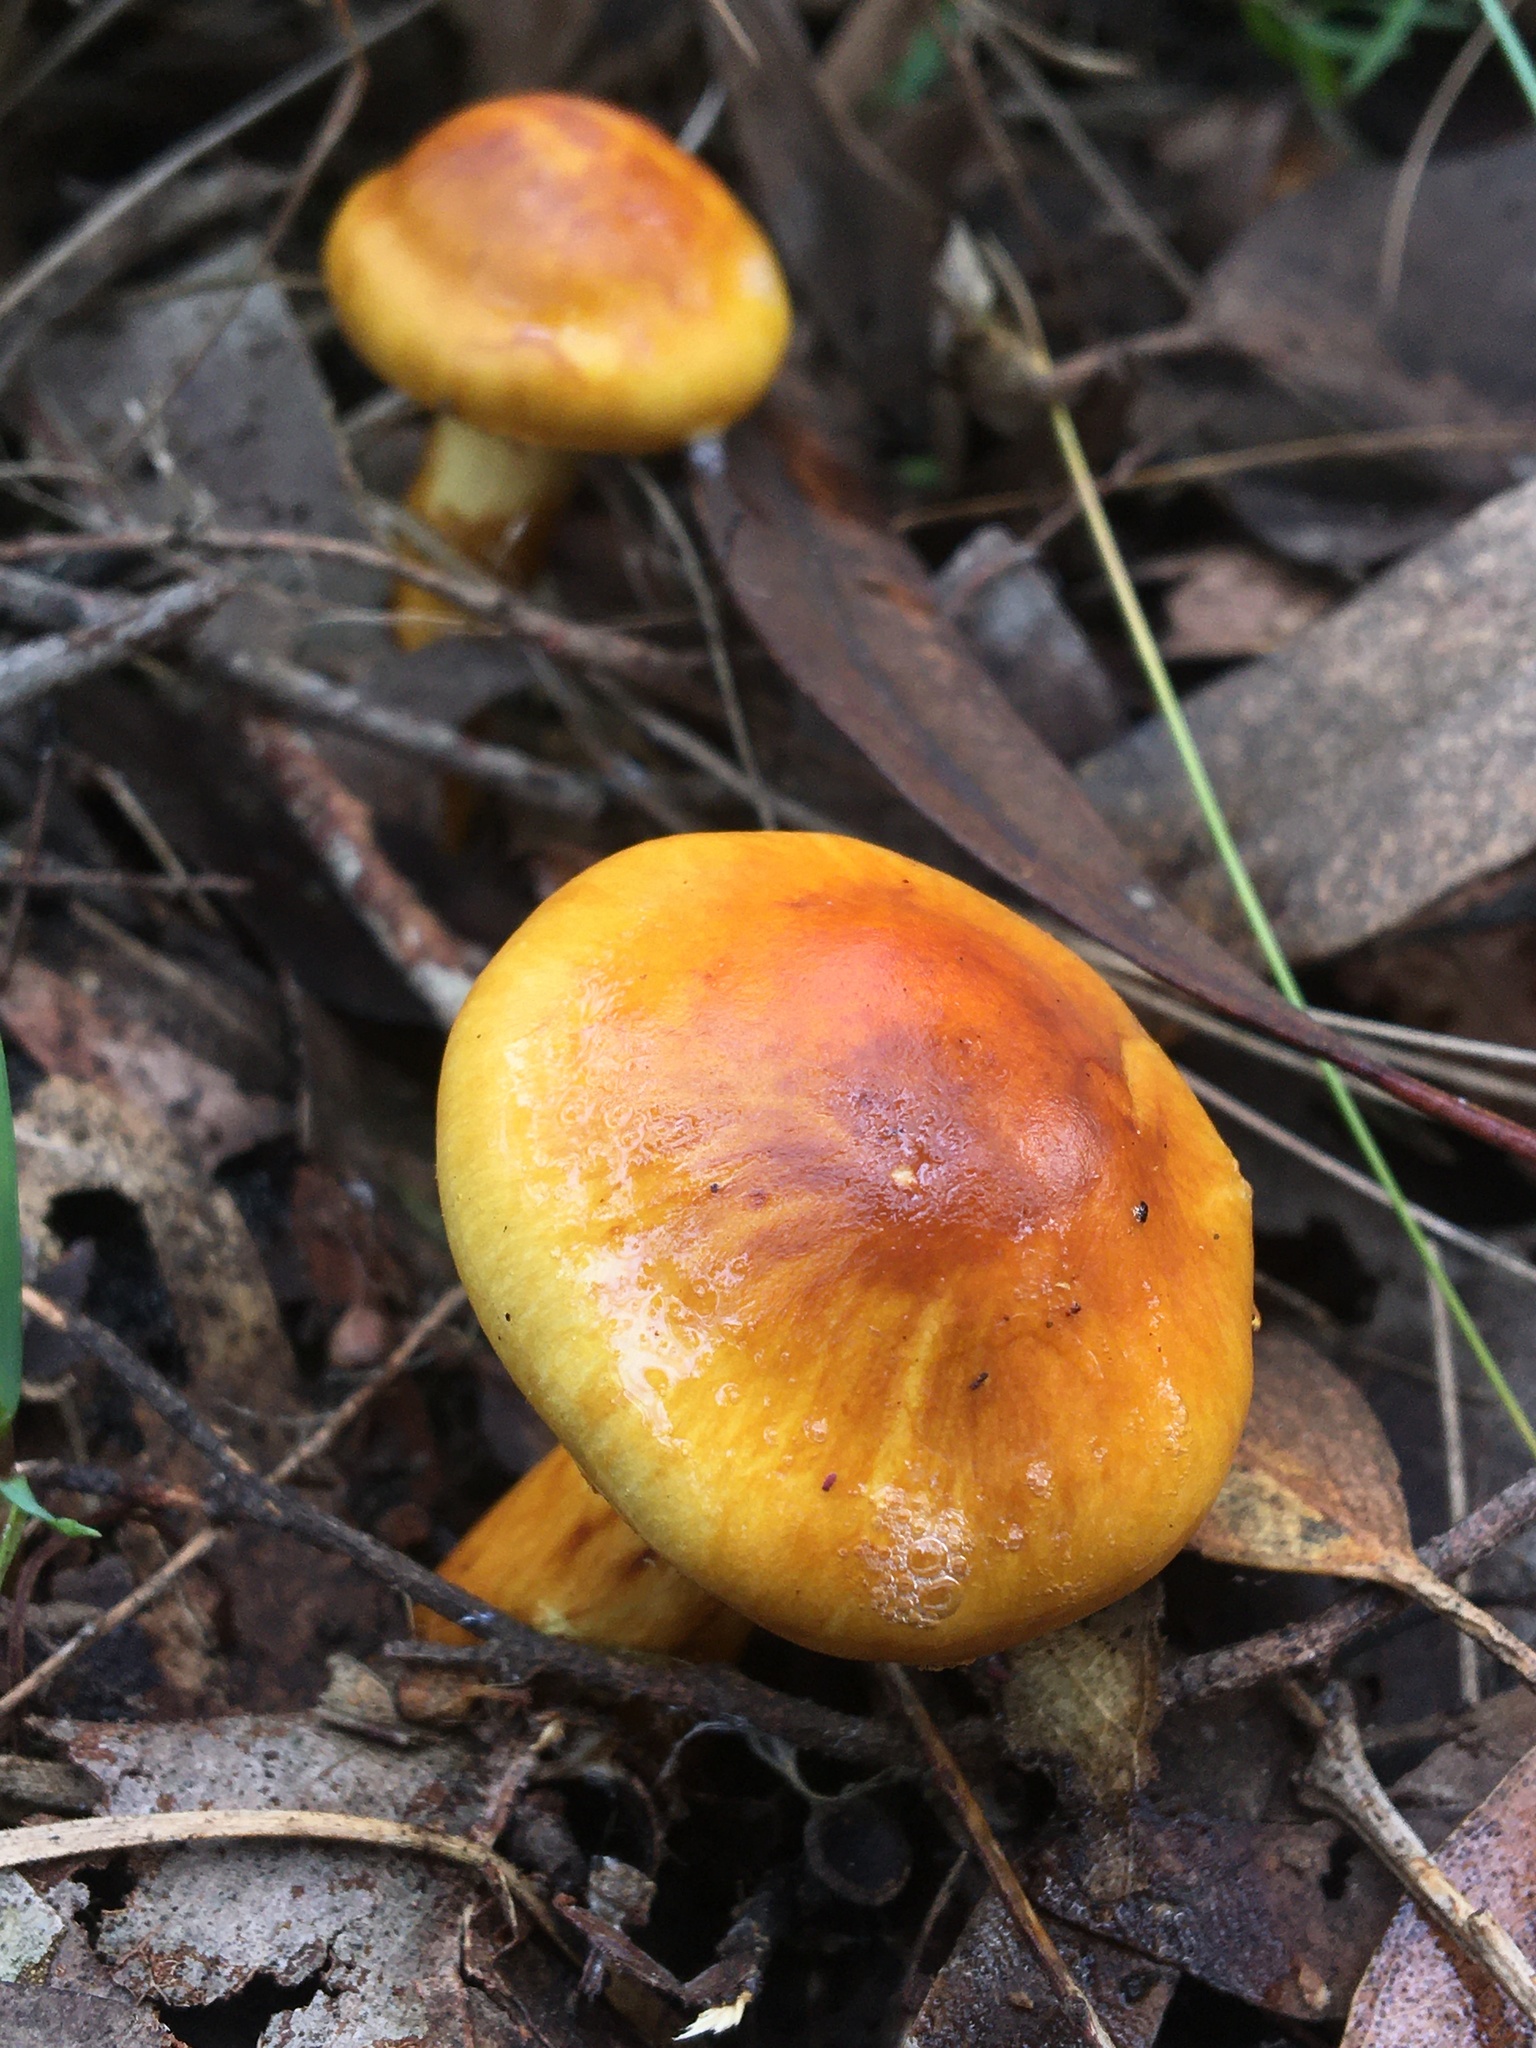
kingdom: Fungi
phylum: Basidiomycota
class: Agaricomycetes
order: Agaricales
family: Cortinariaceae
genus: Cortinarius
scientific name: Cortinarius sinapicolor
